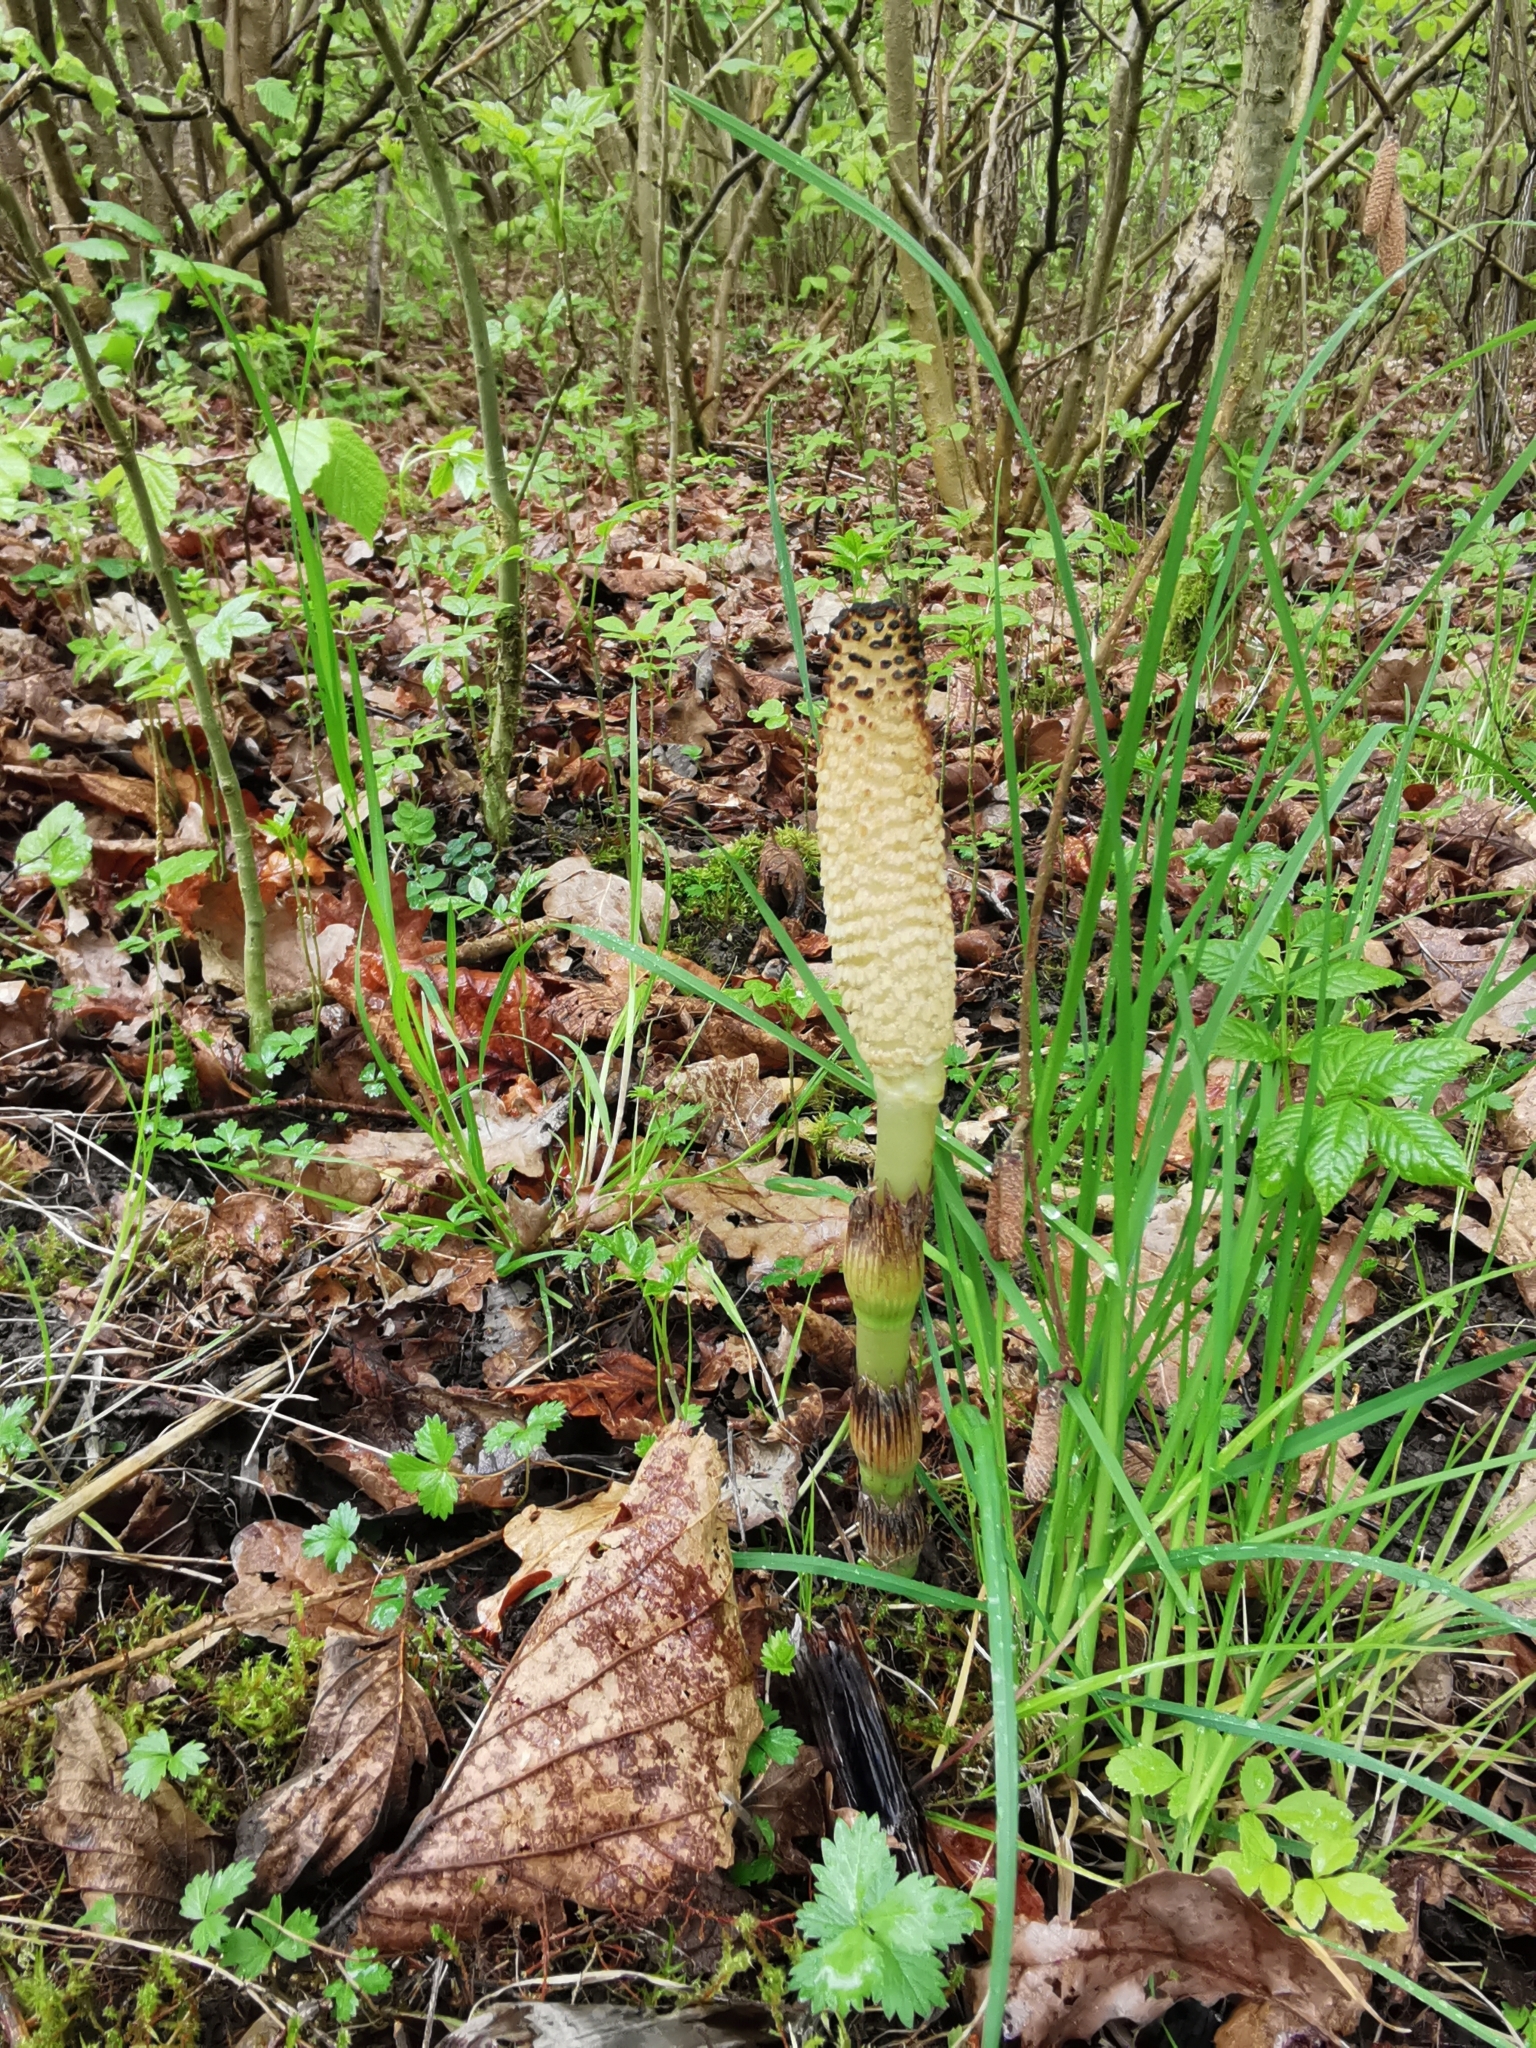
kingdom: Plantae
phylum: Tracheophyta
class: Polypodiopsida
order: Equisetales
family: Equisetaceae
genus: Equisetum
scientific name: Equisetum telmateia
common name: Great horsetail
